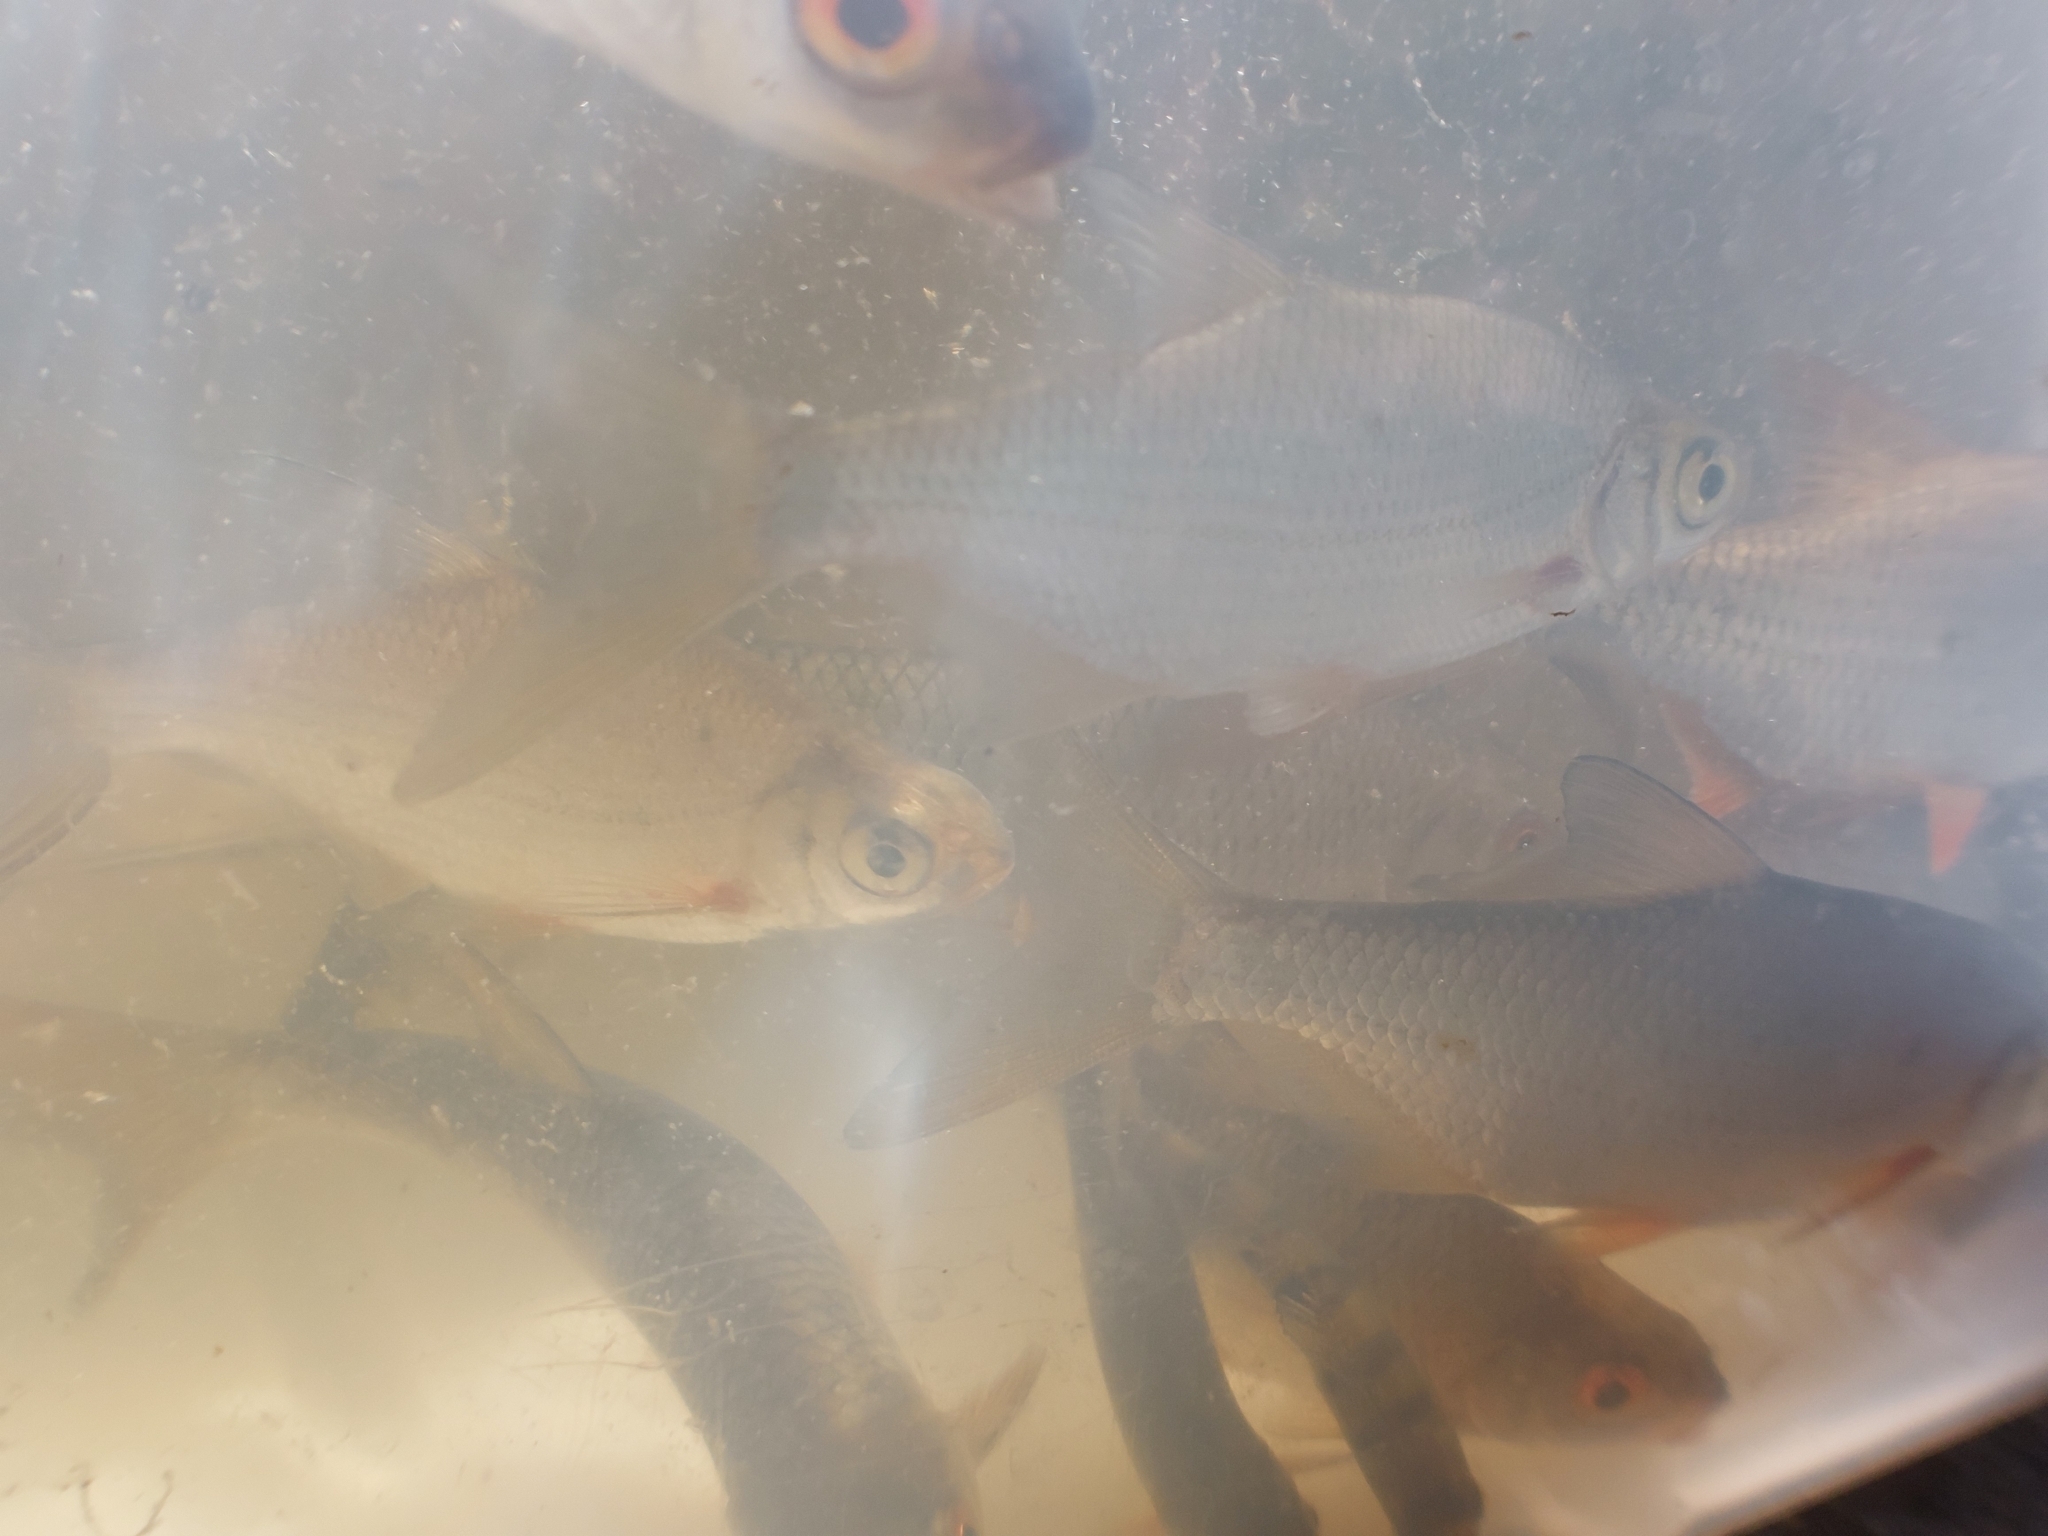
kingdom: Animalia
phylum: Chordata
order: Perciformes
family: Percidae
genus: Perca
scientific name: Perca fluviatilis
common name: Perch
